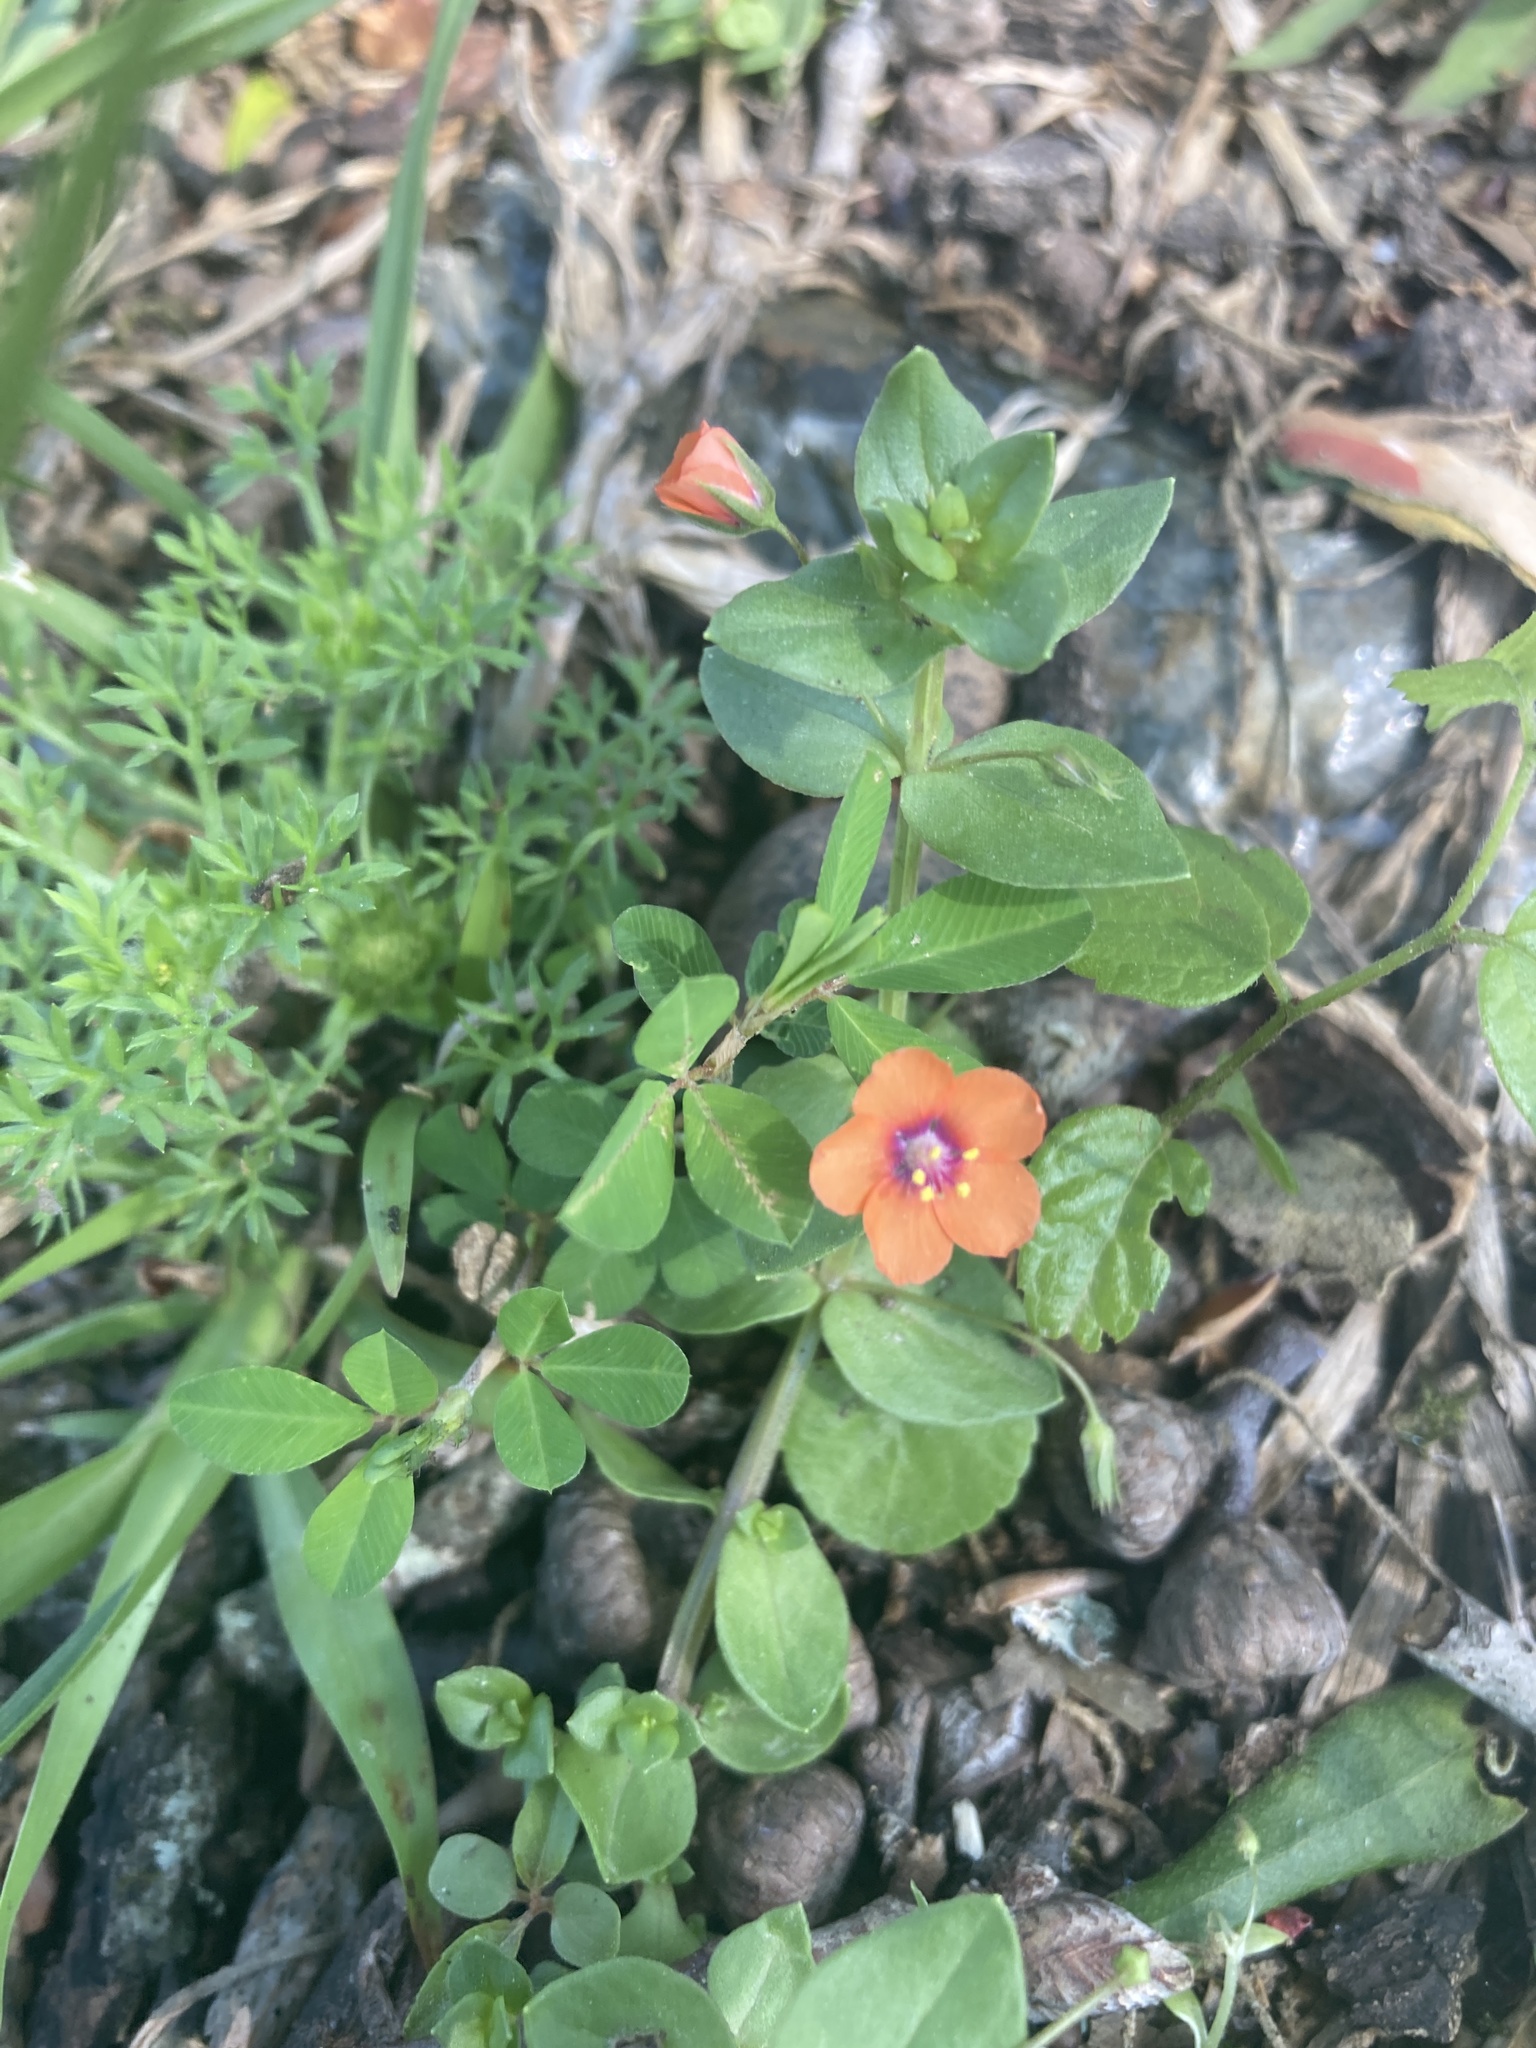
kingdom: Plantae
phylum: Tracheophyta
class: Magnoliopsida
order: Ericales
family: Primulaceae
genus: Lysimachia
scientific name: Lysimachia arvensis
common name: Scarlet pimpernel
